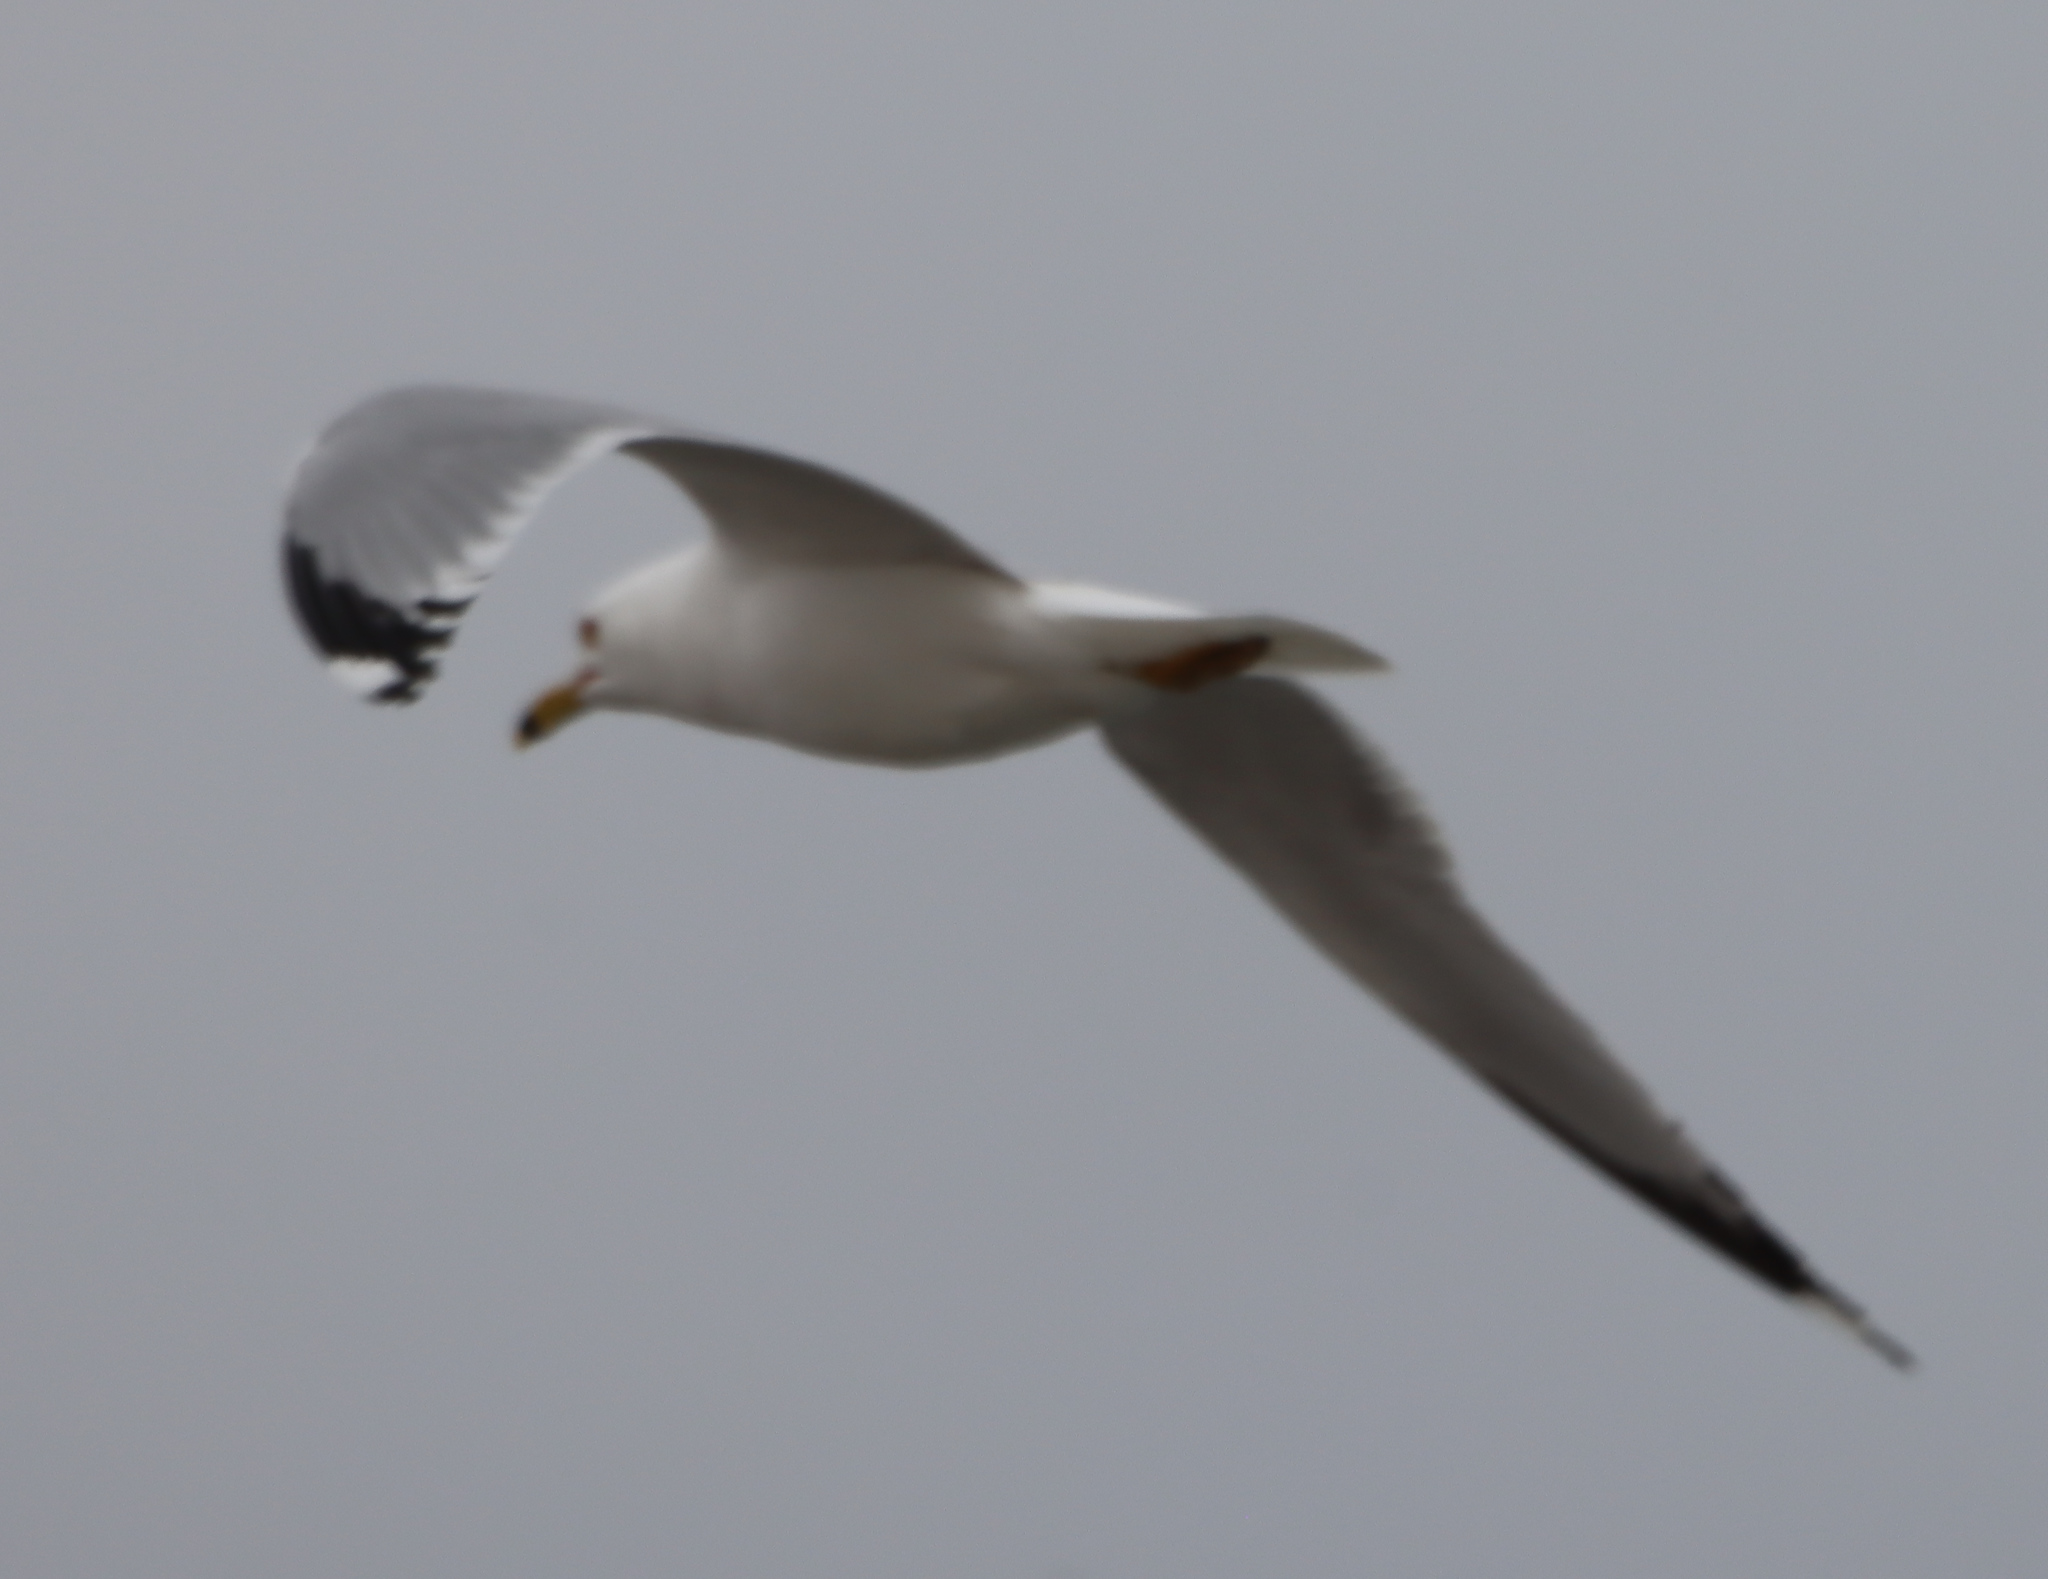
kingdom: Animalia
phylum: Chordata
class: Aves
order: Charadriiformes
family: Laridae
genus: Larus
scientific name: Larus delawarensis
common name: Ring-billed gull
